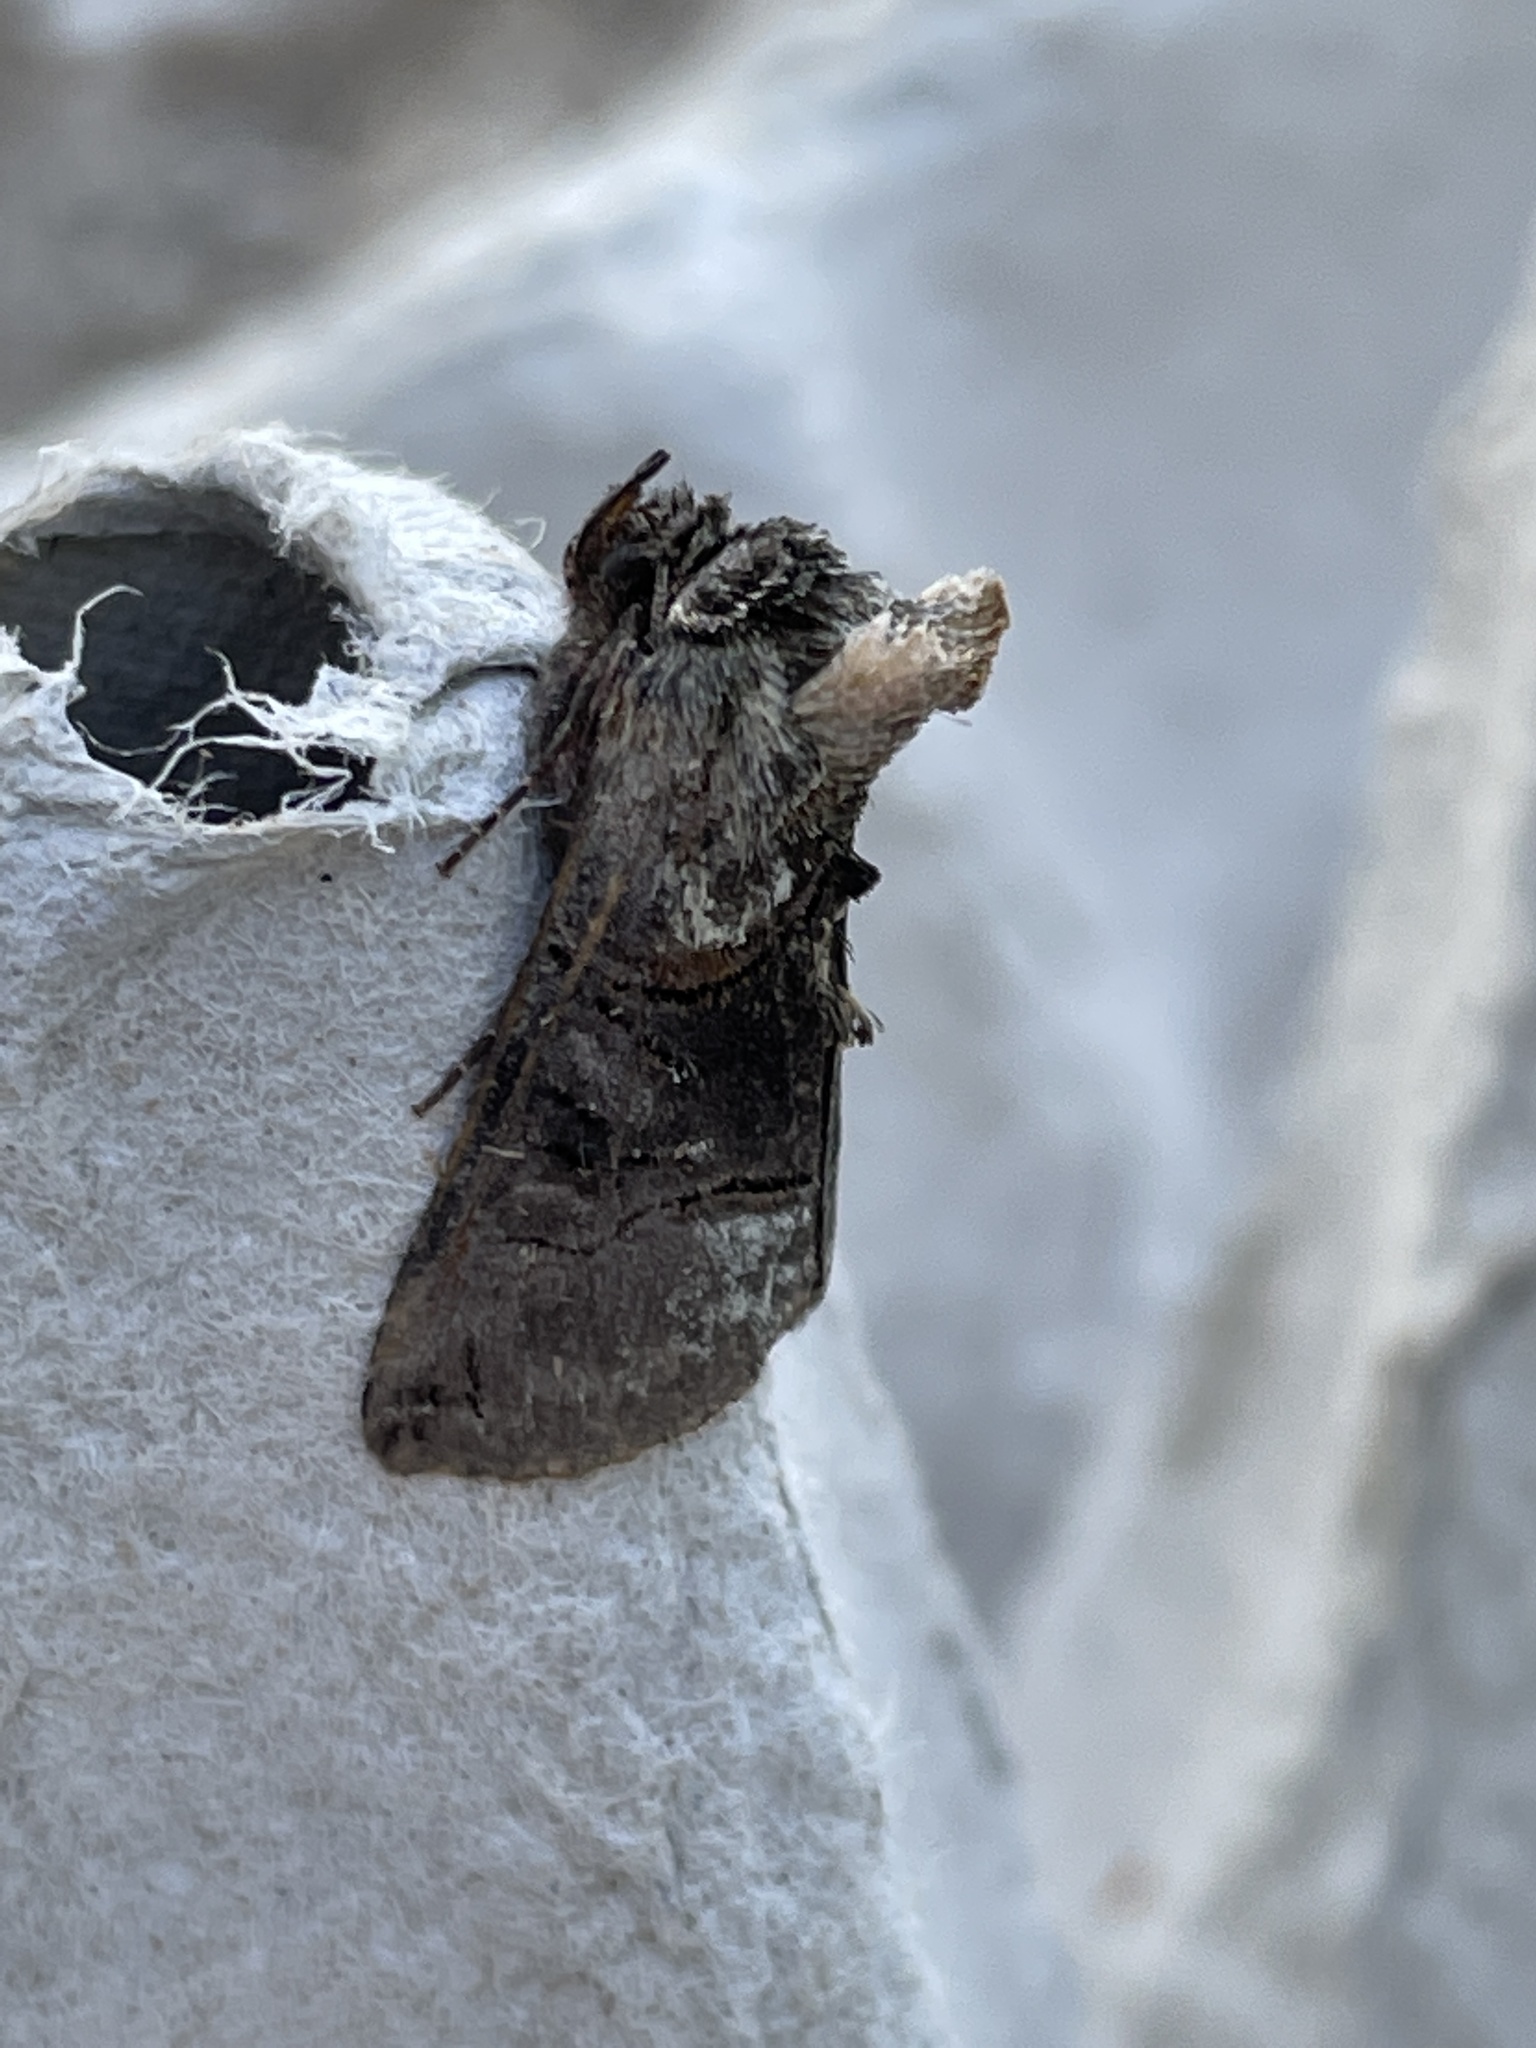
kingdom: Animalia
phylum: Arthropoda
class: Insecta
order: Lepidoptera
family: Noctuidae
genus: Abrostola
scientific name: Abrostola tripartita
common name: Spectacle
